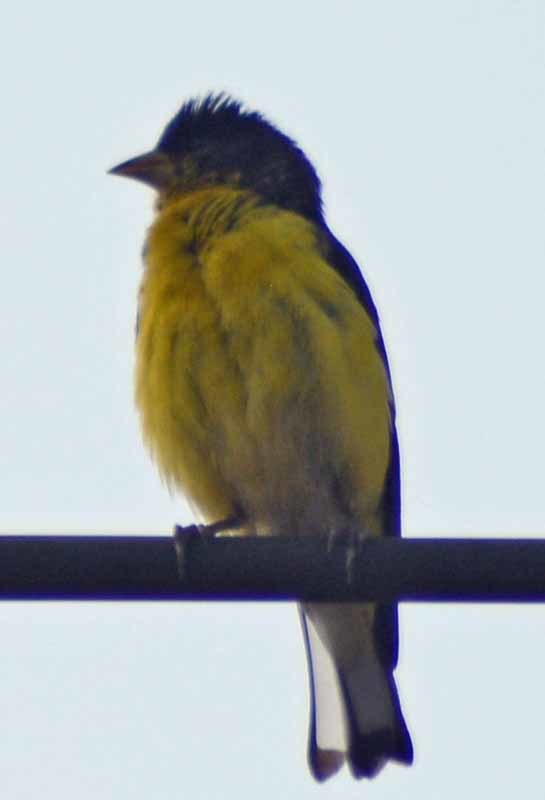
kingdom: Animalia
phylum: Chordata
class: Aves
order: Passeriformes
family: Fringillidae
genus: Spinus
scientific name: Spinus psaltria
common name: Lesser goldfinch
